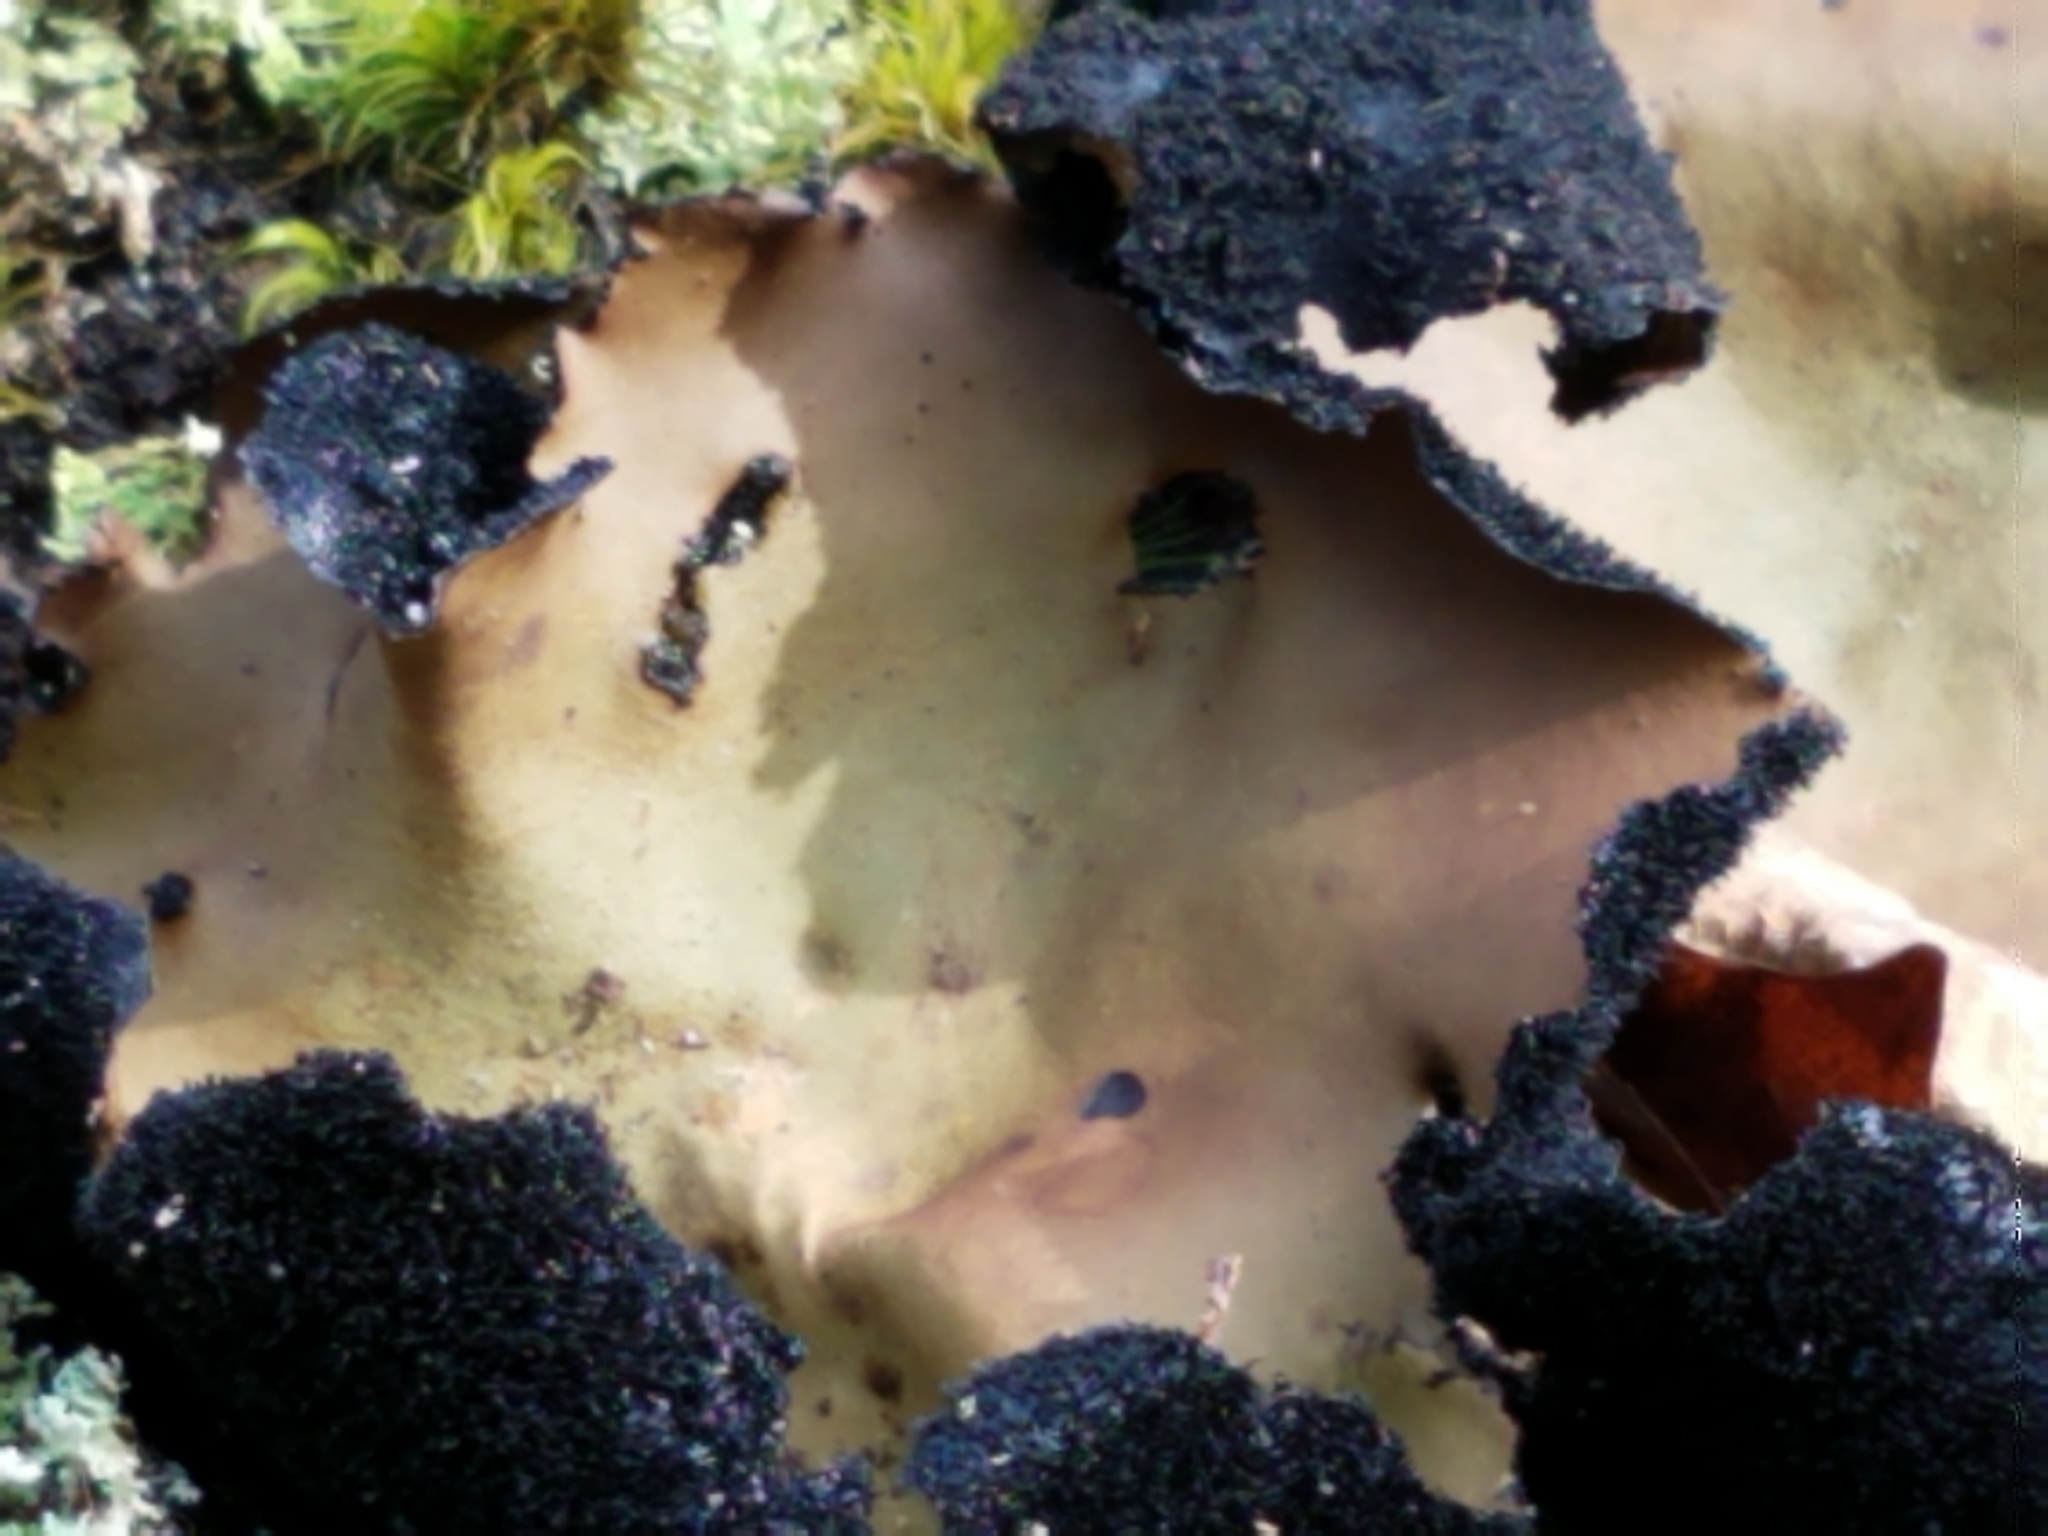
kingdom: Fungi
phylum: Ascomycota
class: Lecanoromycetes
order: Umbilicariales
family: Umbilicariaceae
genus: Umbilicaria
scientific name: Umbilicaria mammulata
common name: Smooth rock tripe
